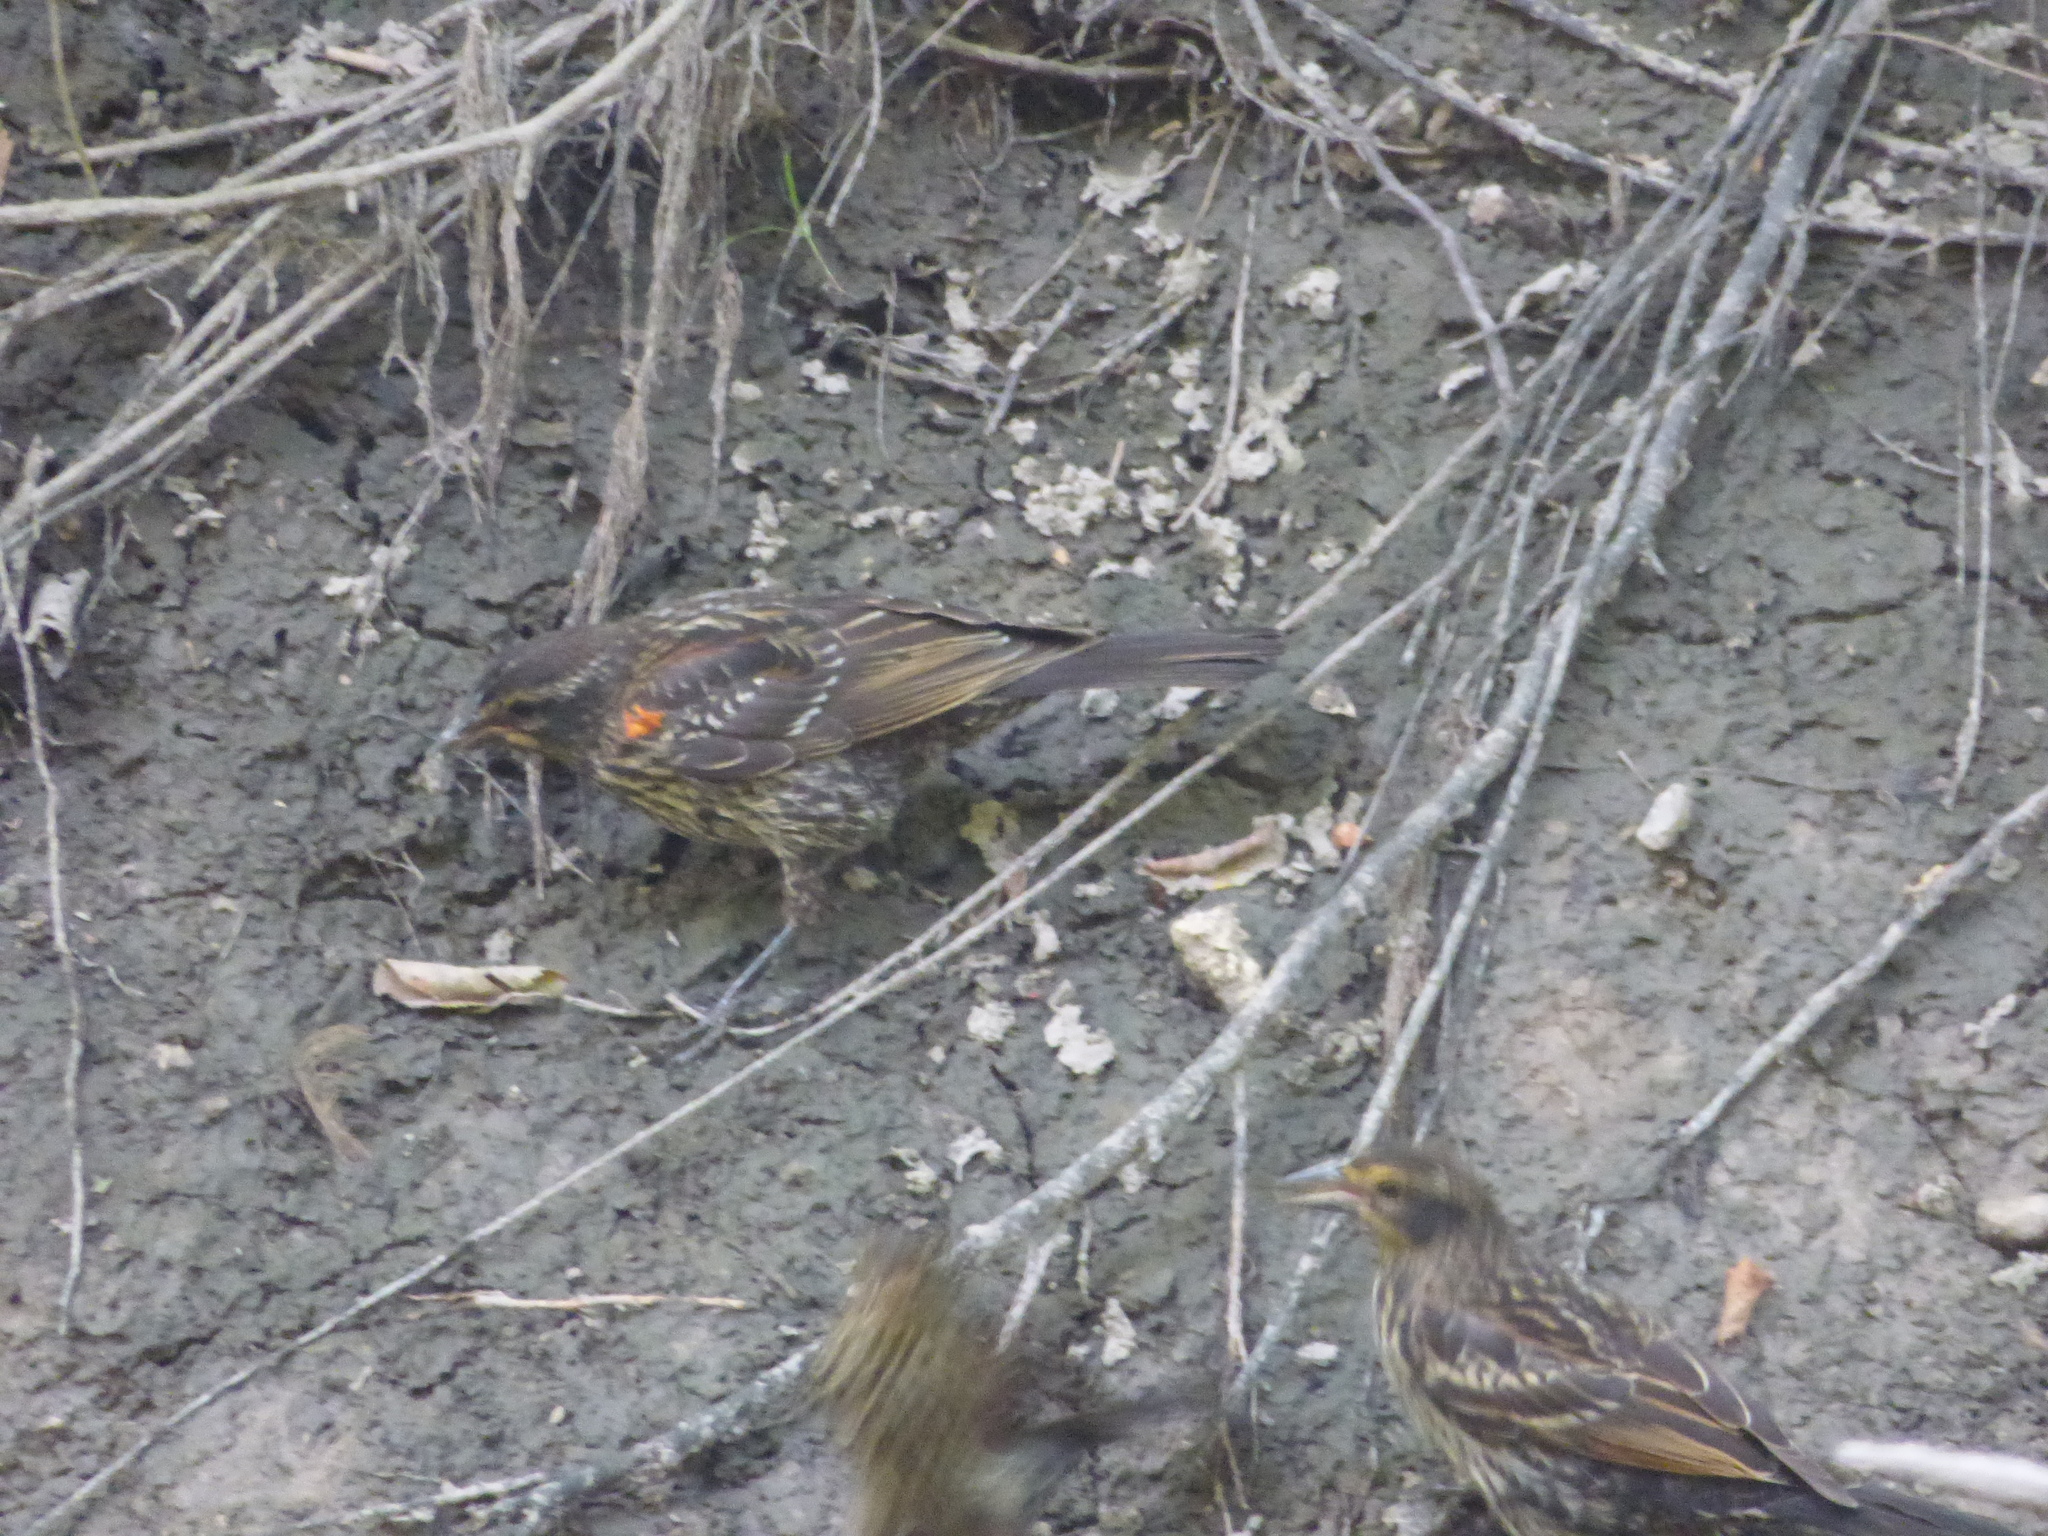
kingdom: Animalia
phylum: Chordata
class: Aves
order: Passeriformes
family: Icteridae
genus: Agelaius
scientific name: Agelaius phoeniceus
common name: Red-winged blackbird
